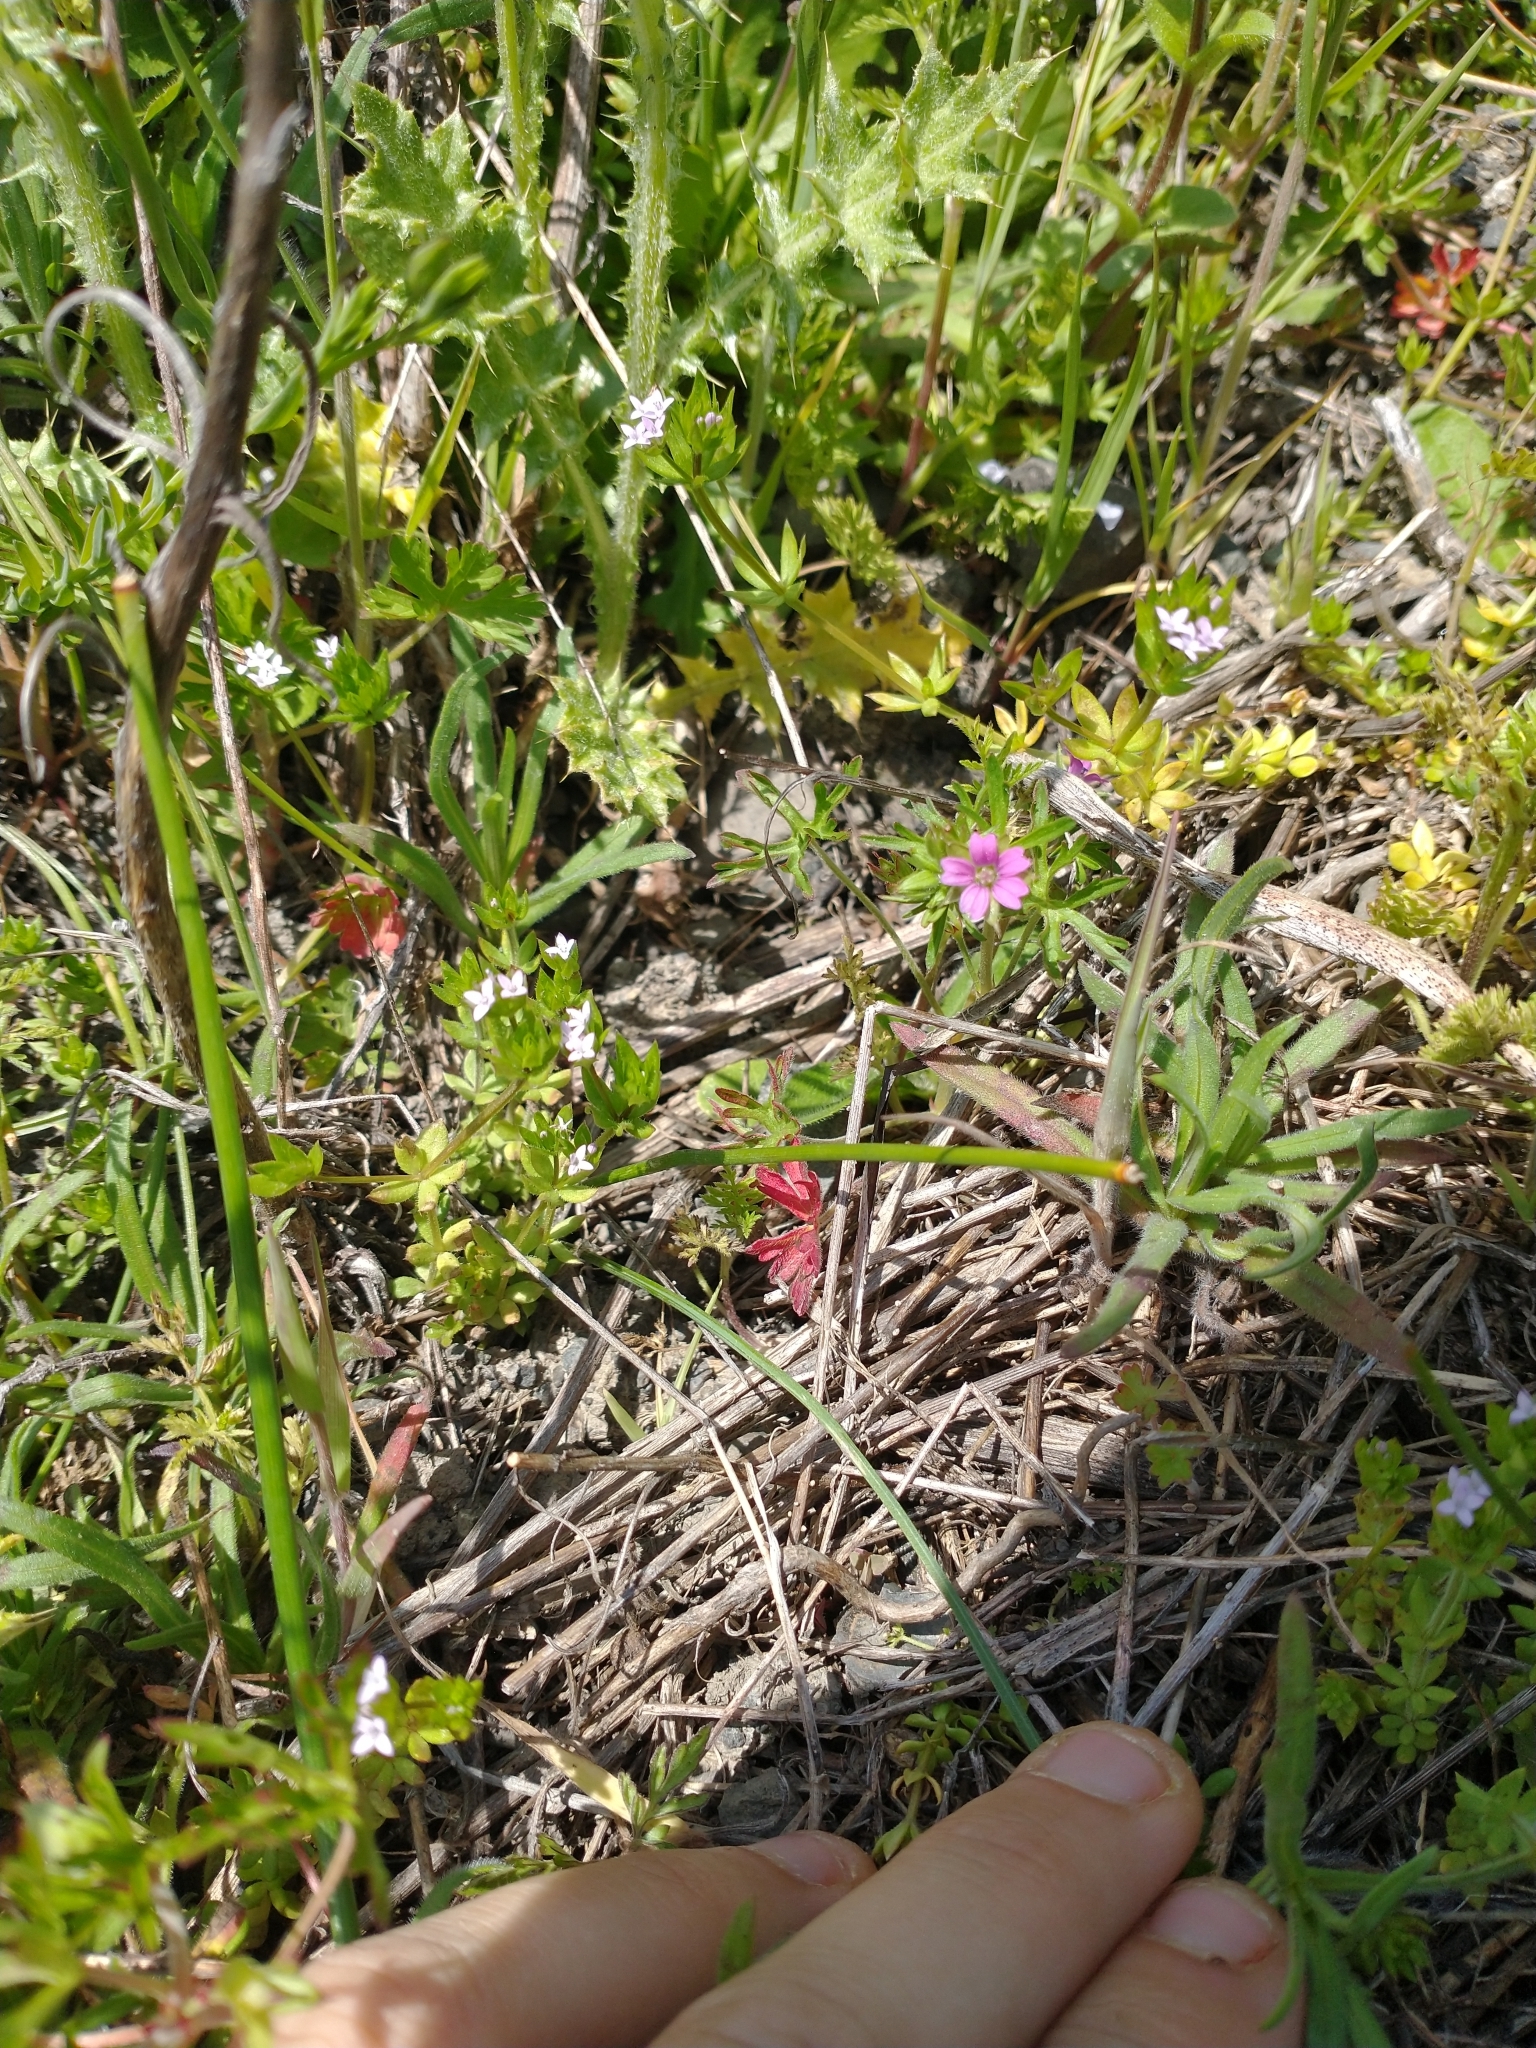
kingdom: Plantae
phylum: Tracheophyta
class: Magnoliopsida
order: Gentianales
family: Rubiaceae
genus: Sherardia
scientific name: Sherardia arvensis
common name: Field madder
